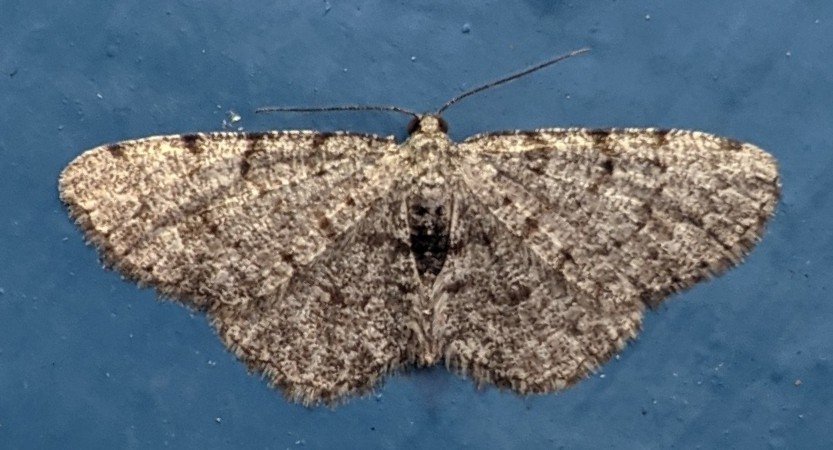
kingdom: Animalia
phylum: Arthropoda
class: Insecta
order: Lepidoptera
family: Geometridae
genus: Aethalura
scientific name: Aethalura intertexta
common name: Four-barred gray
